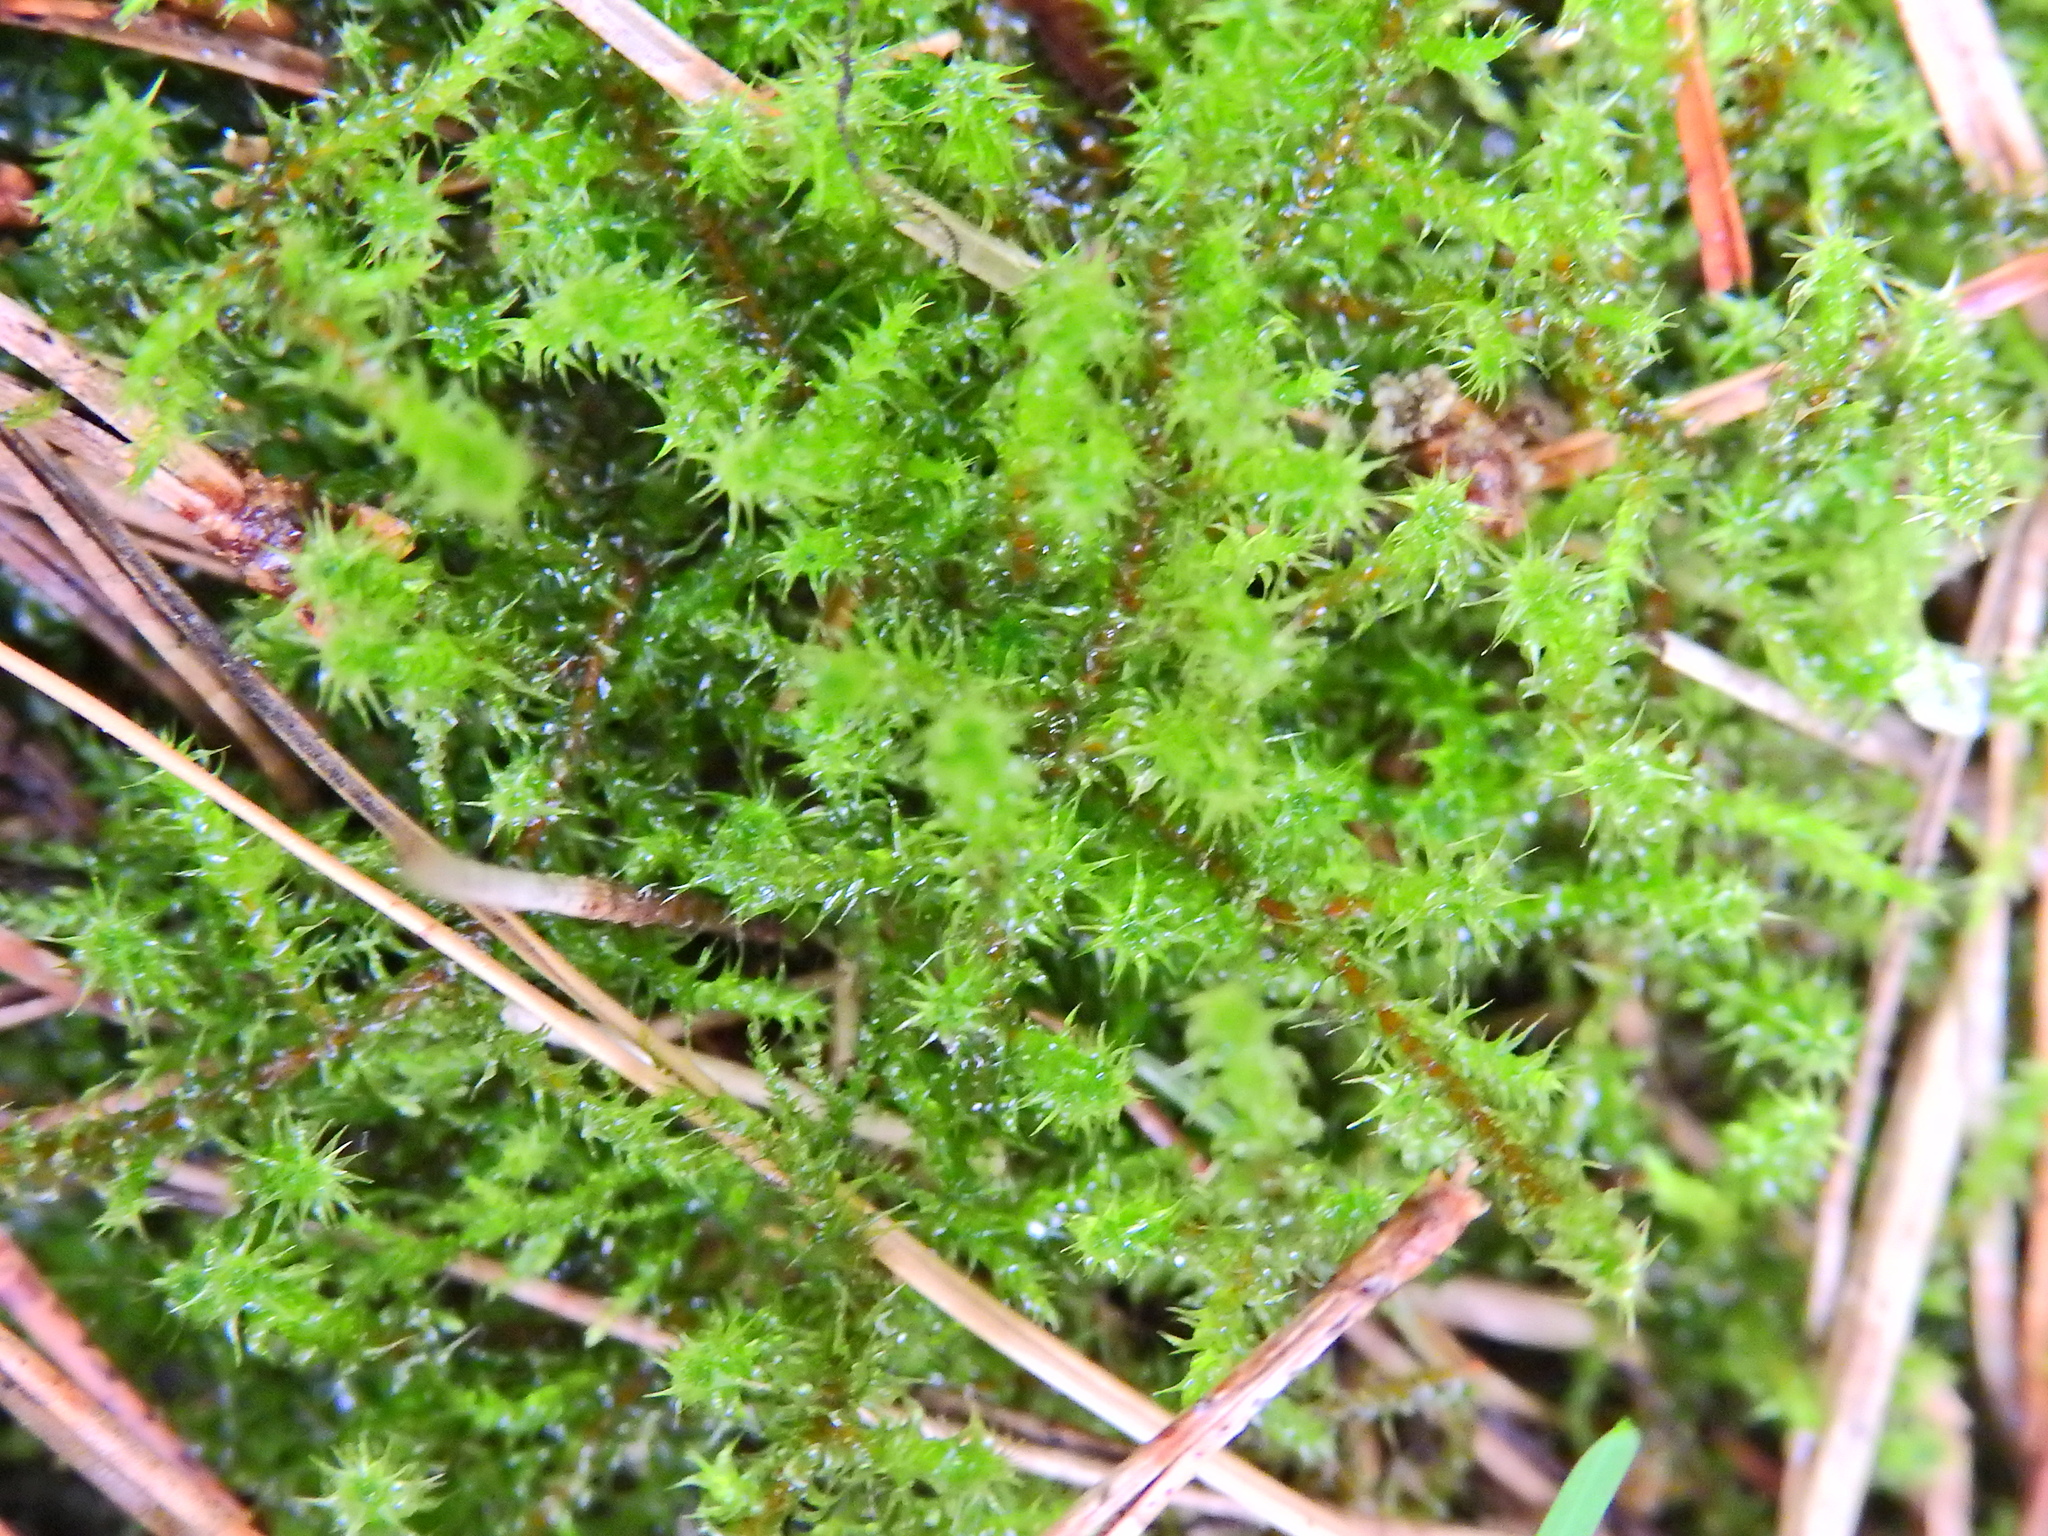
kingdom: Plantae
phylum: Bryophyta
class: Bryopsida
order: Hypnales
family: Hylocomiaceae
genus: Rhytidiadelphus
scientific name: Rhytidiadelphus squarrosus
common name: Springy turf-moss
